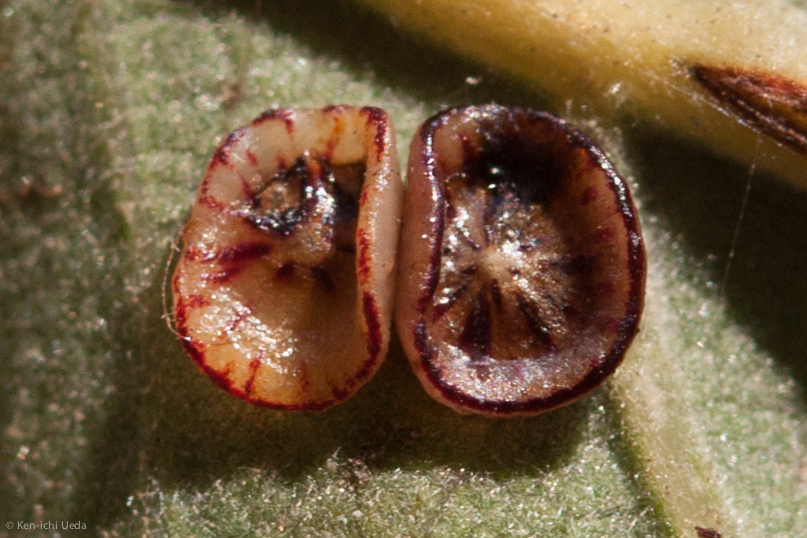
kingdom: Animalia
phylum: Arthropoda
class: Insecta
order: Hymenoptera
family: Cynipidae
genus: Andricus
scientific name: Andricus
